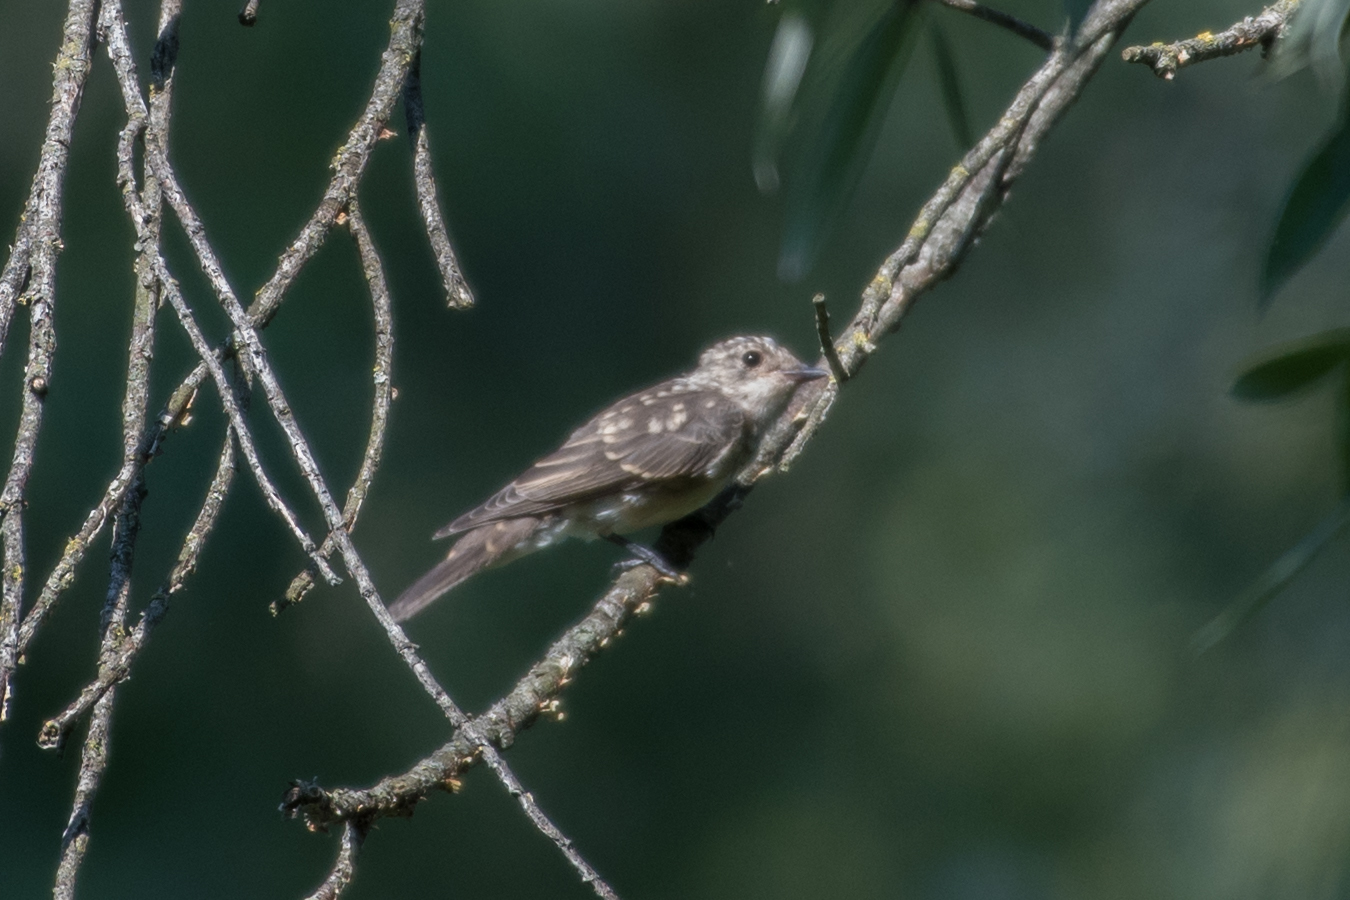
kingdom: Animalia
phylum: Chordata
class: Aves
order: Passeriformes
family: Muscicapidae
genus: Muscicapa
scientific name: Muscicapa striata
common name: Spotted flycatcher
